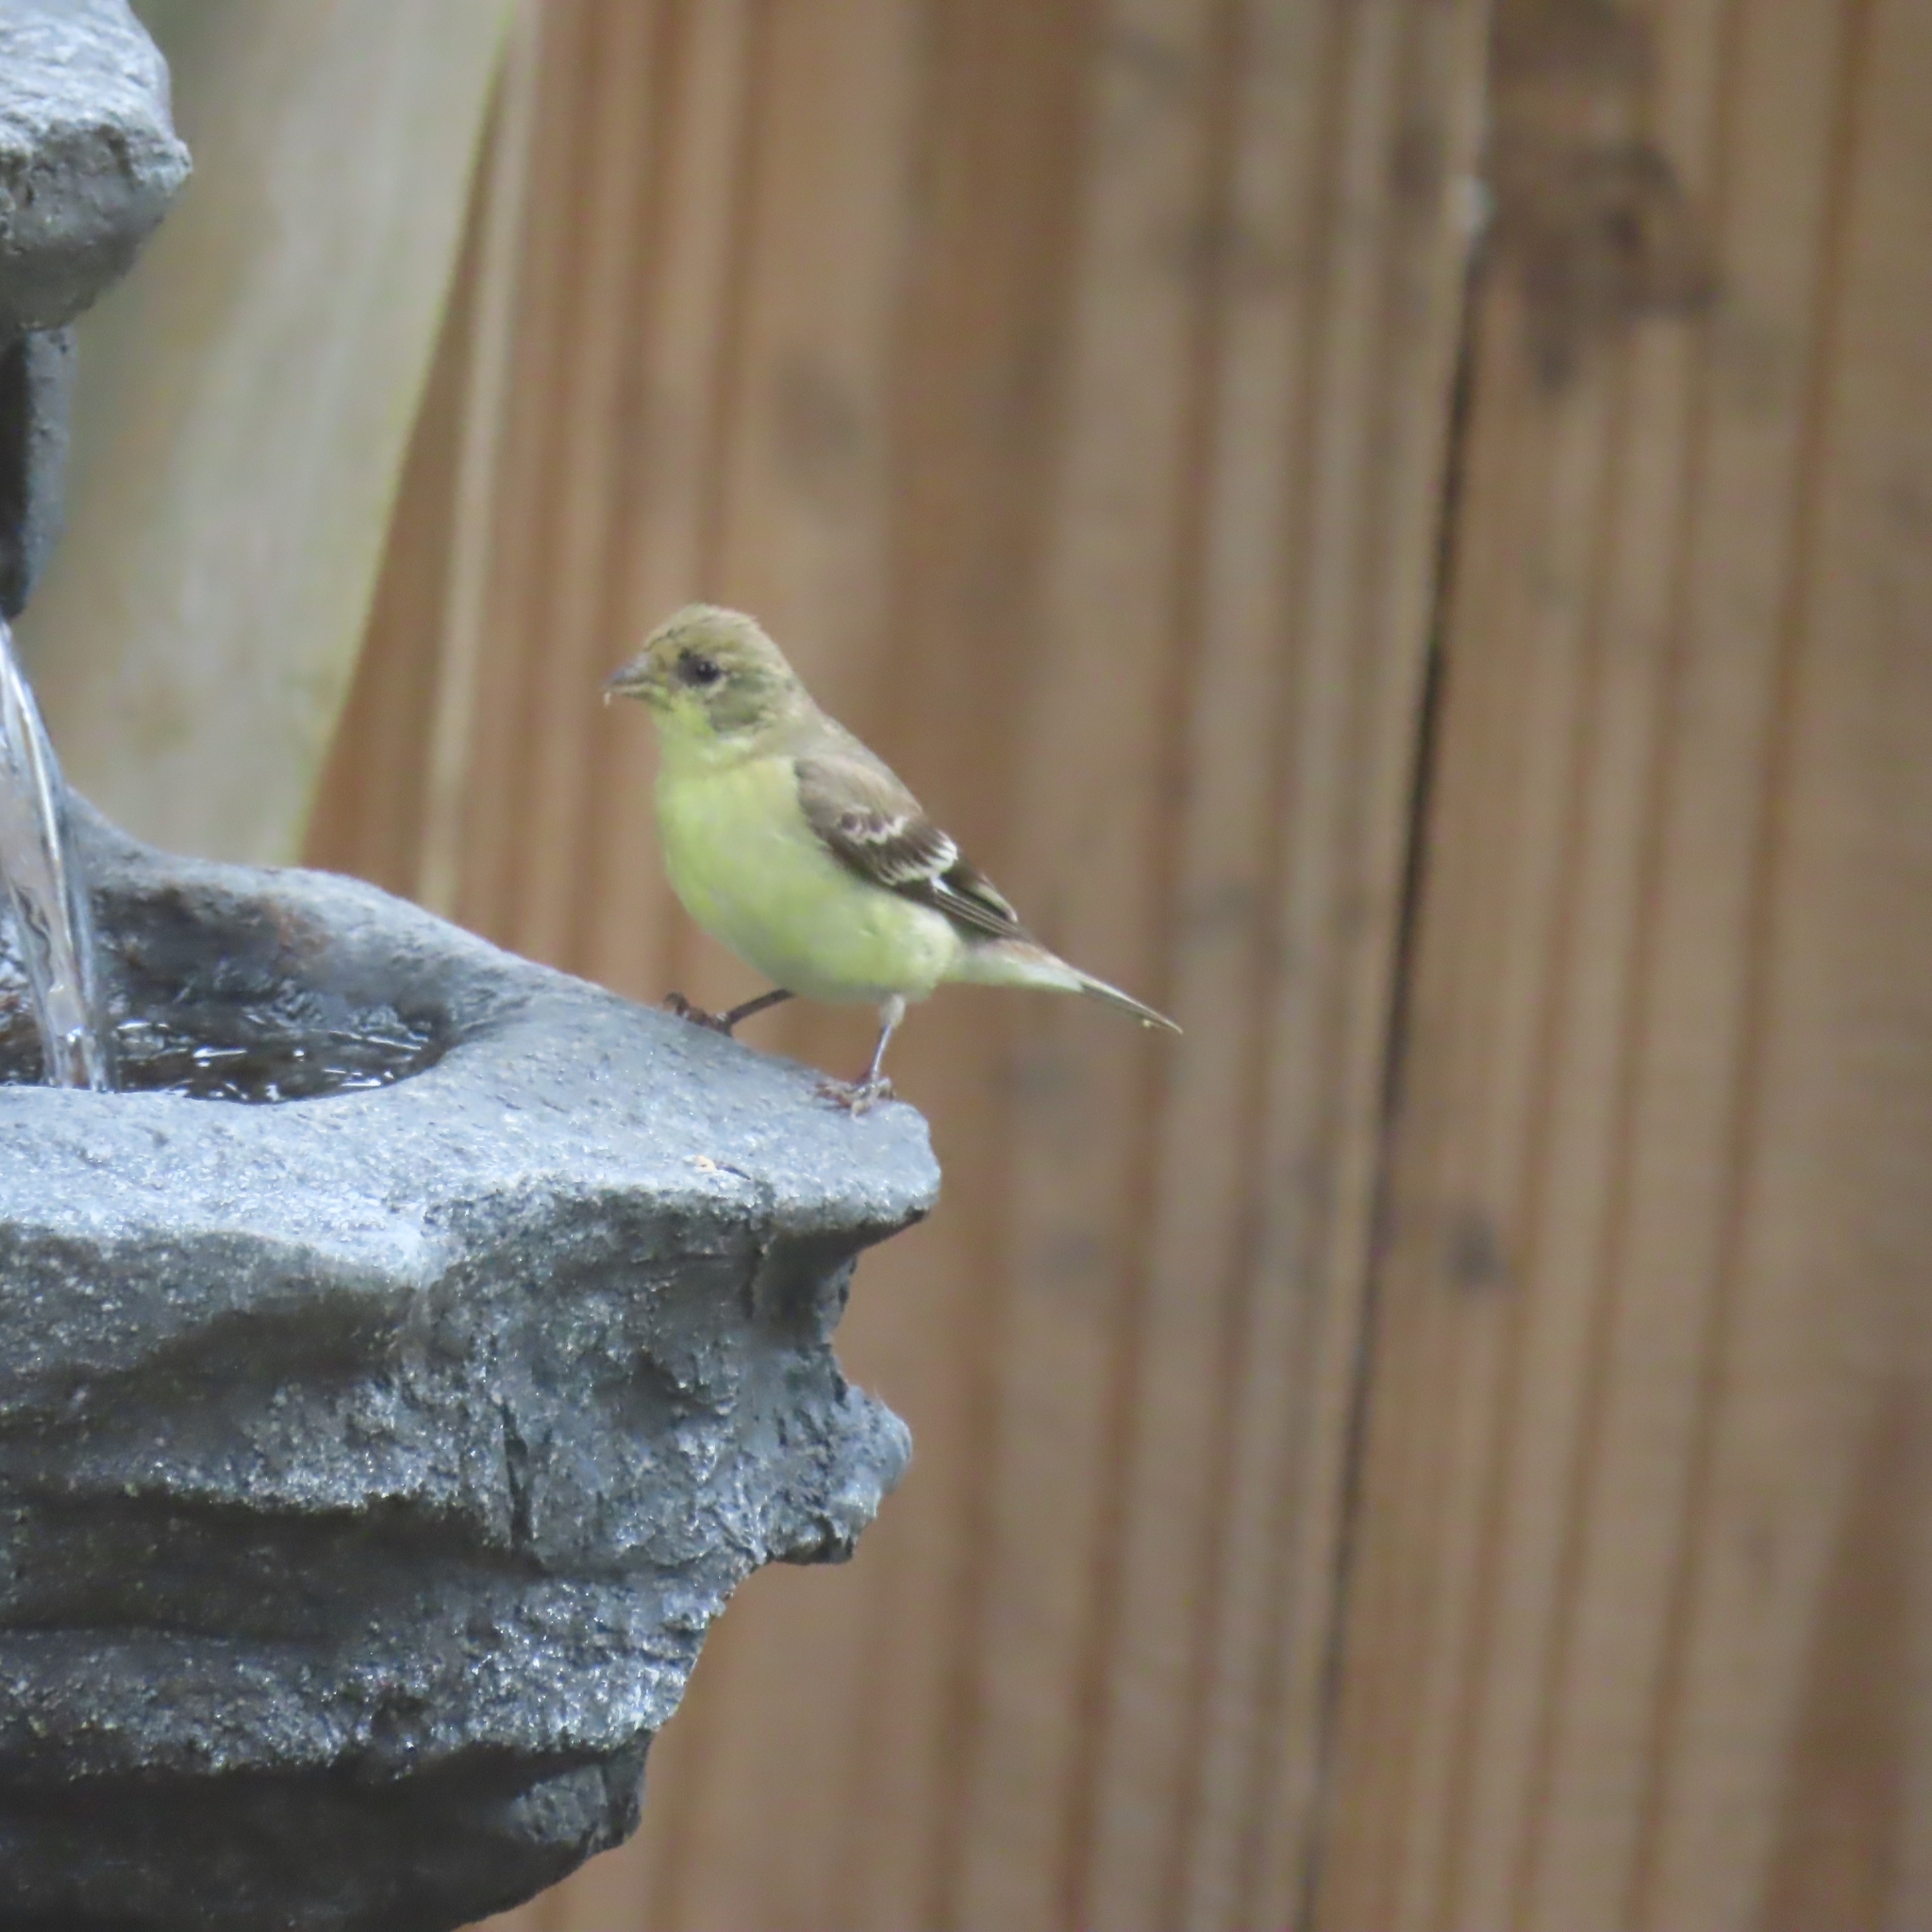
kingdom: Animalia
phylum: Chordata
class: Aves
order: Passeriformes
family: Fringillidae
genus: Spinus
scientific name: Spinus psaltria
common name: Lesser goldfinch
